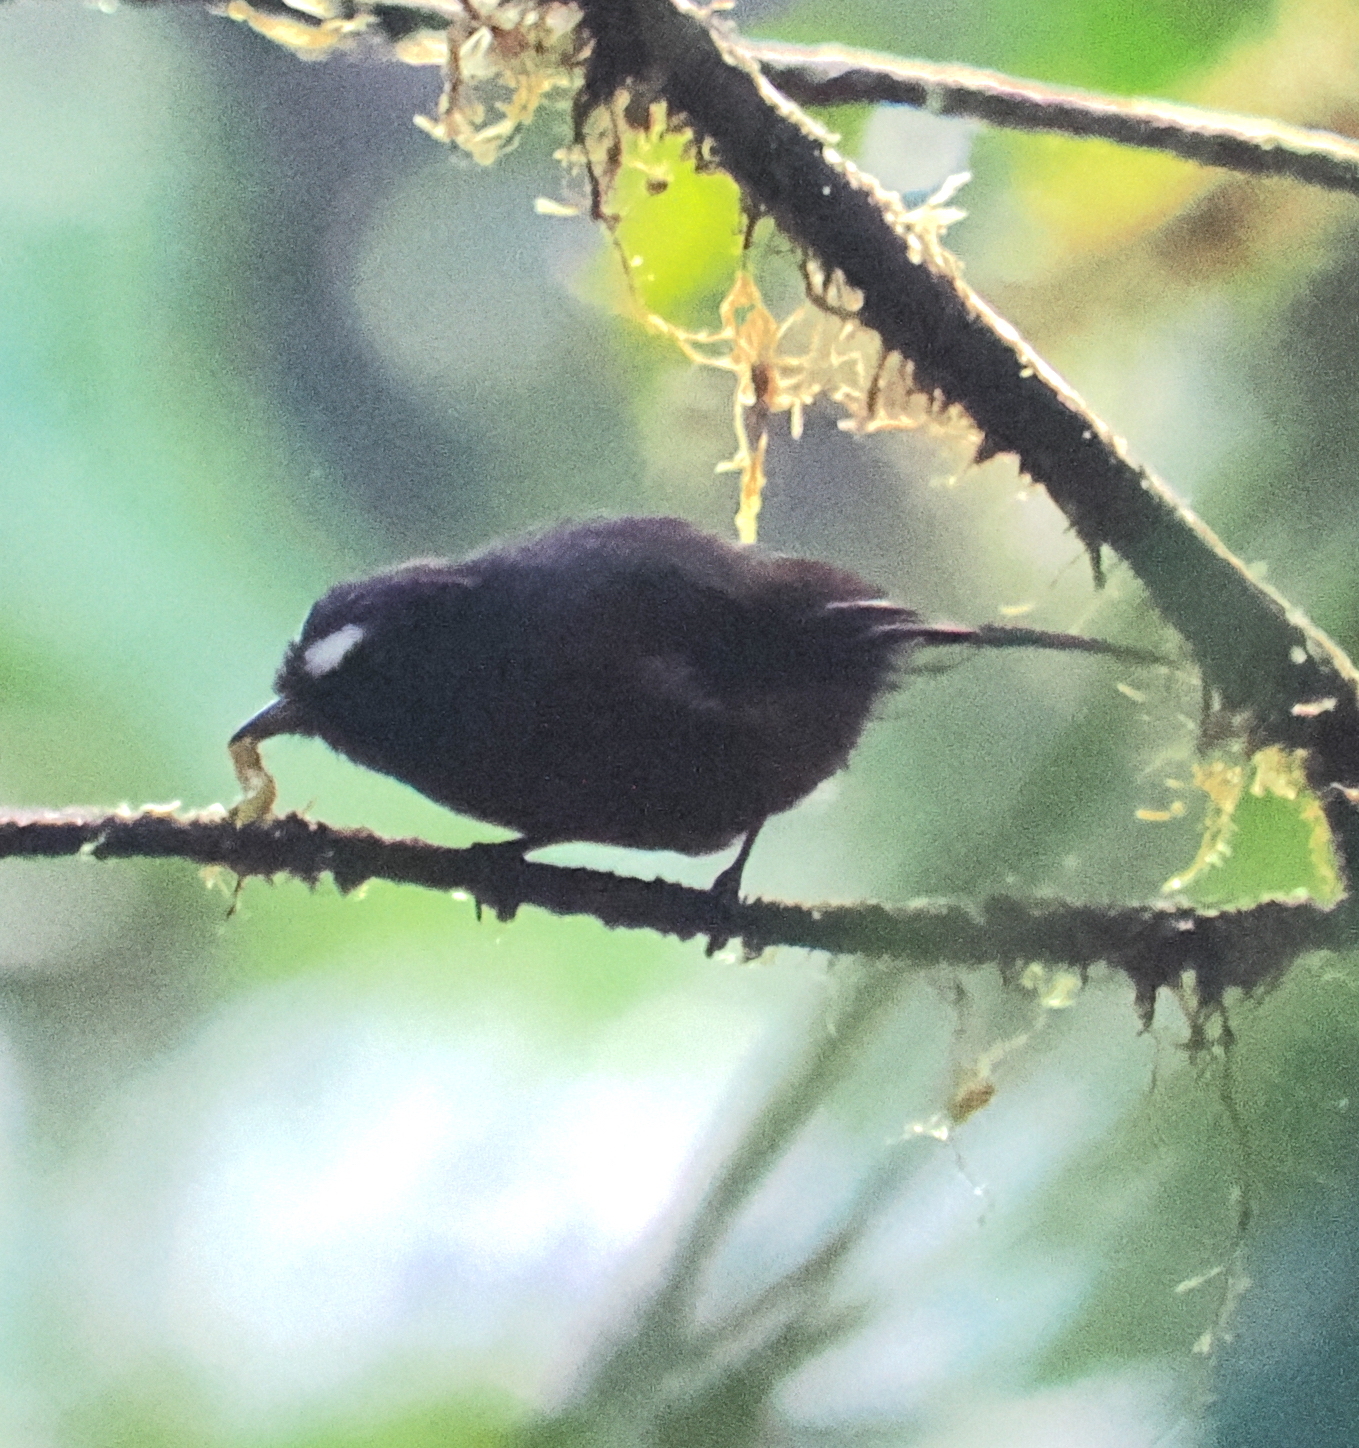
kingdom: Animalia
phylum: Chordata
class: Aves
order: Passeriformes
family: Tyrannidae
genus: Ochthoeca
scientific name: Ochthoeca cinnamomeiventris
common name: Slaty-backed chat-tyrant
